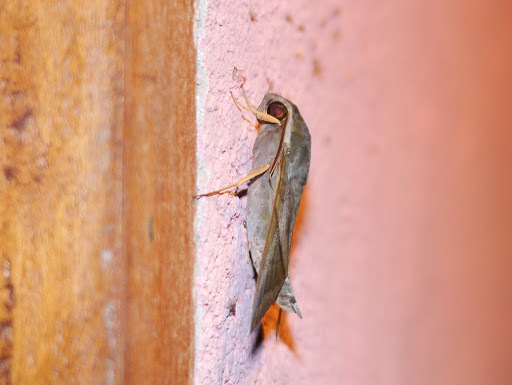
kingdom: Animalia
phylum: Arthropoda
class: Insecta
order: Lepidoptera
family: Sphingidae
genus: Nephele
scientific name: Nephele aequivalens
